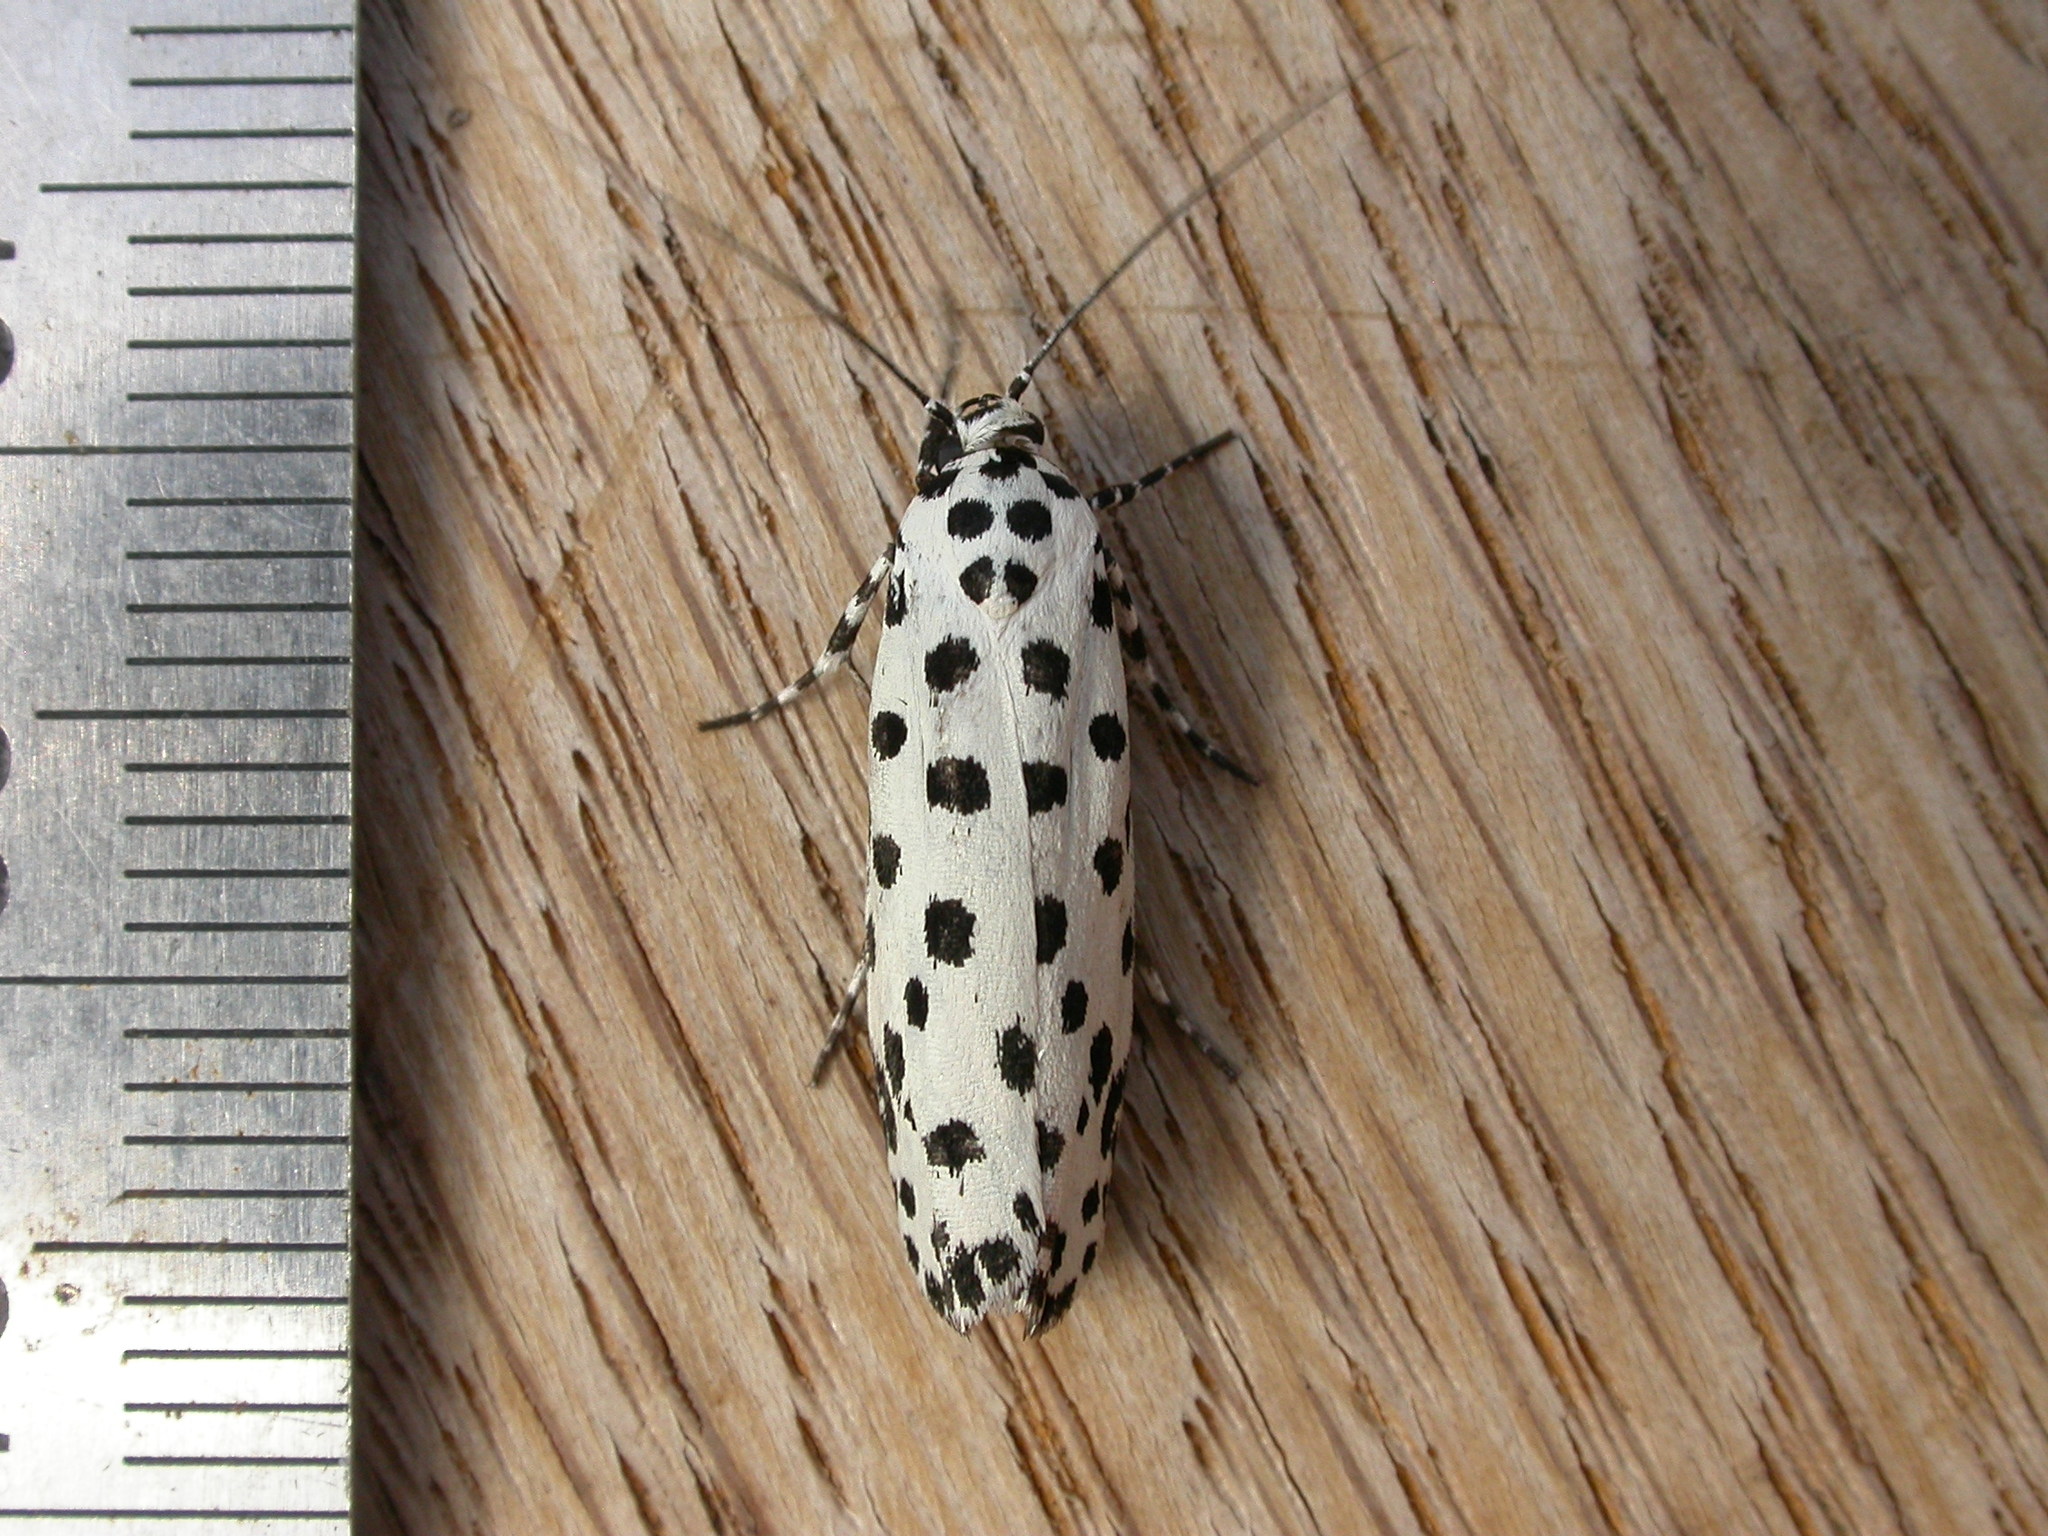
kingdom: Animalia
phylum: Arthropoda
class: Insecta
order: Lepidoptera
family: Ethmiidae
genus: Ethmia
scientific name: Ethmia clytodoxa
